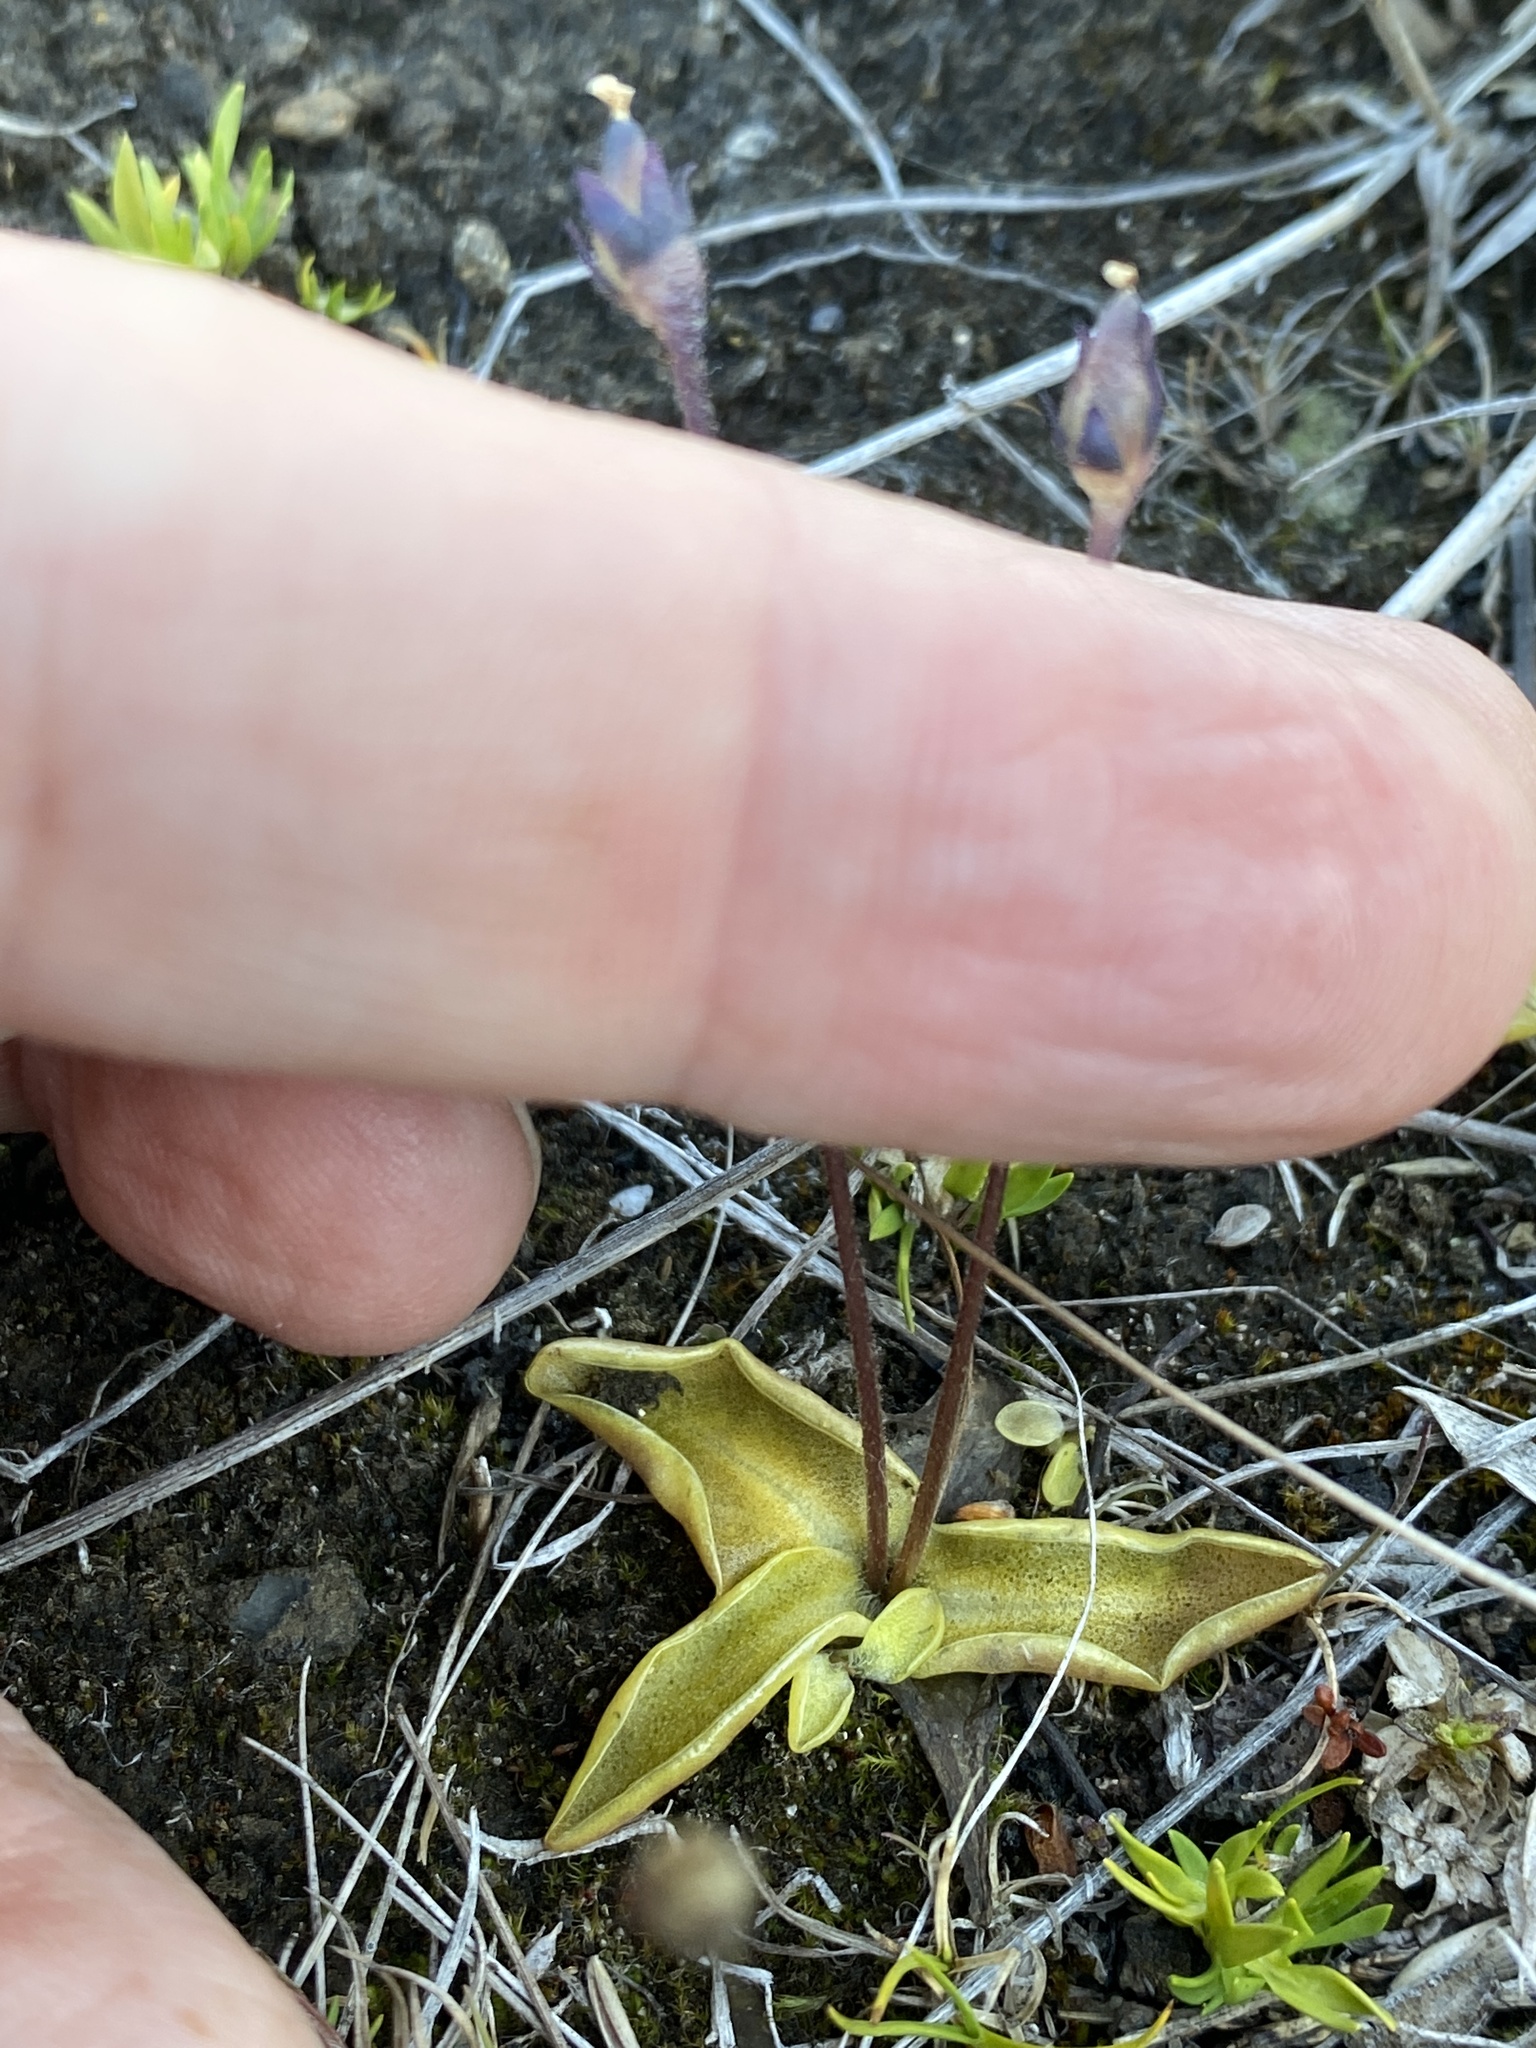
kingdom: Plantae
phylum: Tracheophyta
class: Magnoliopsida
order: Lamiales
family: Lentibulariaceae
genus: Pinguicula
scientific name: Pinguicula vulgaris
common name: Common butterwort
